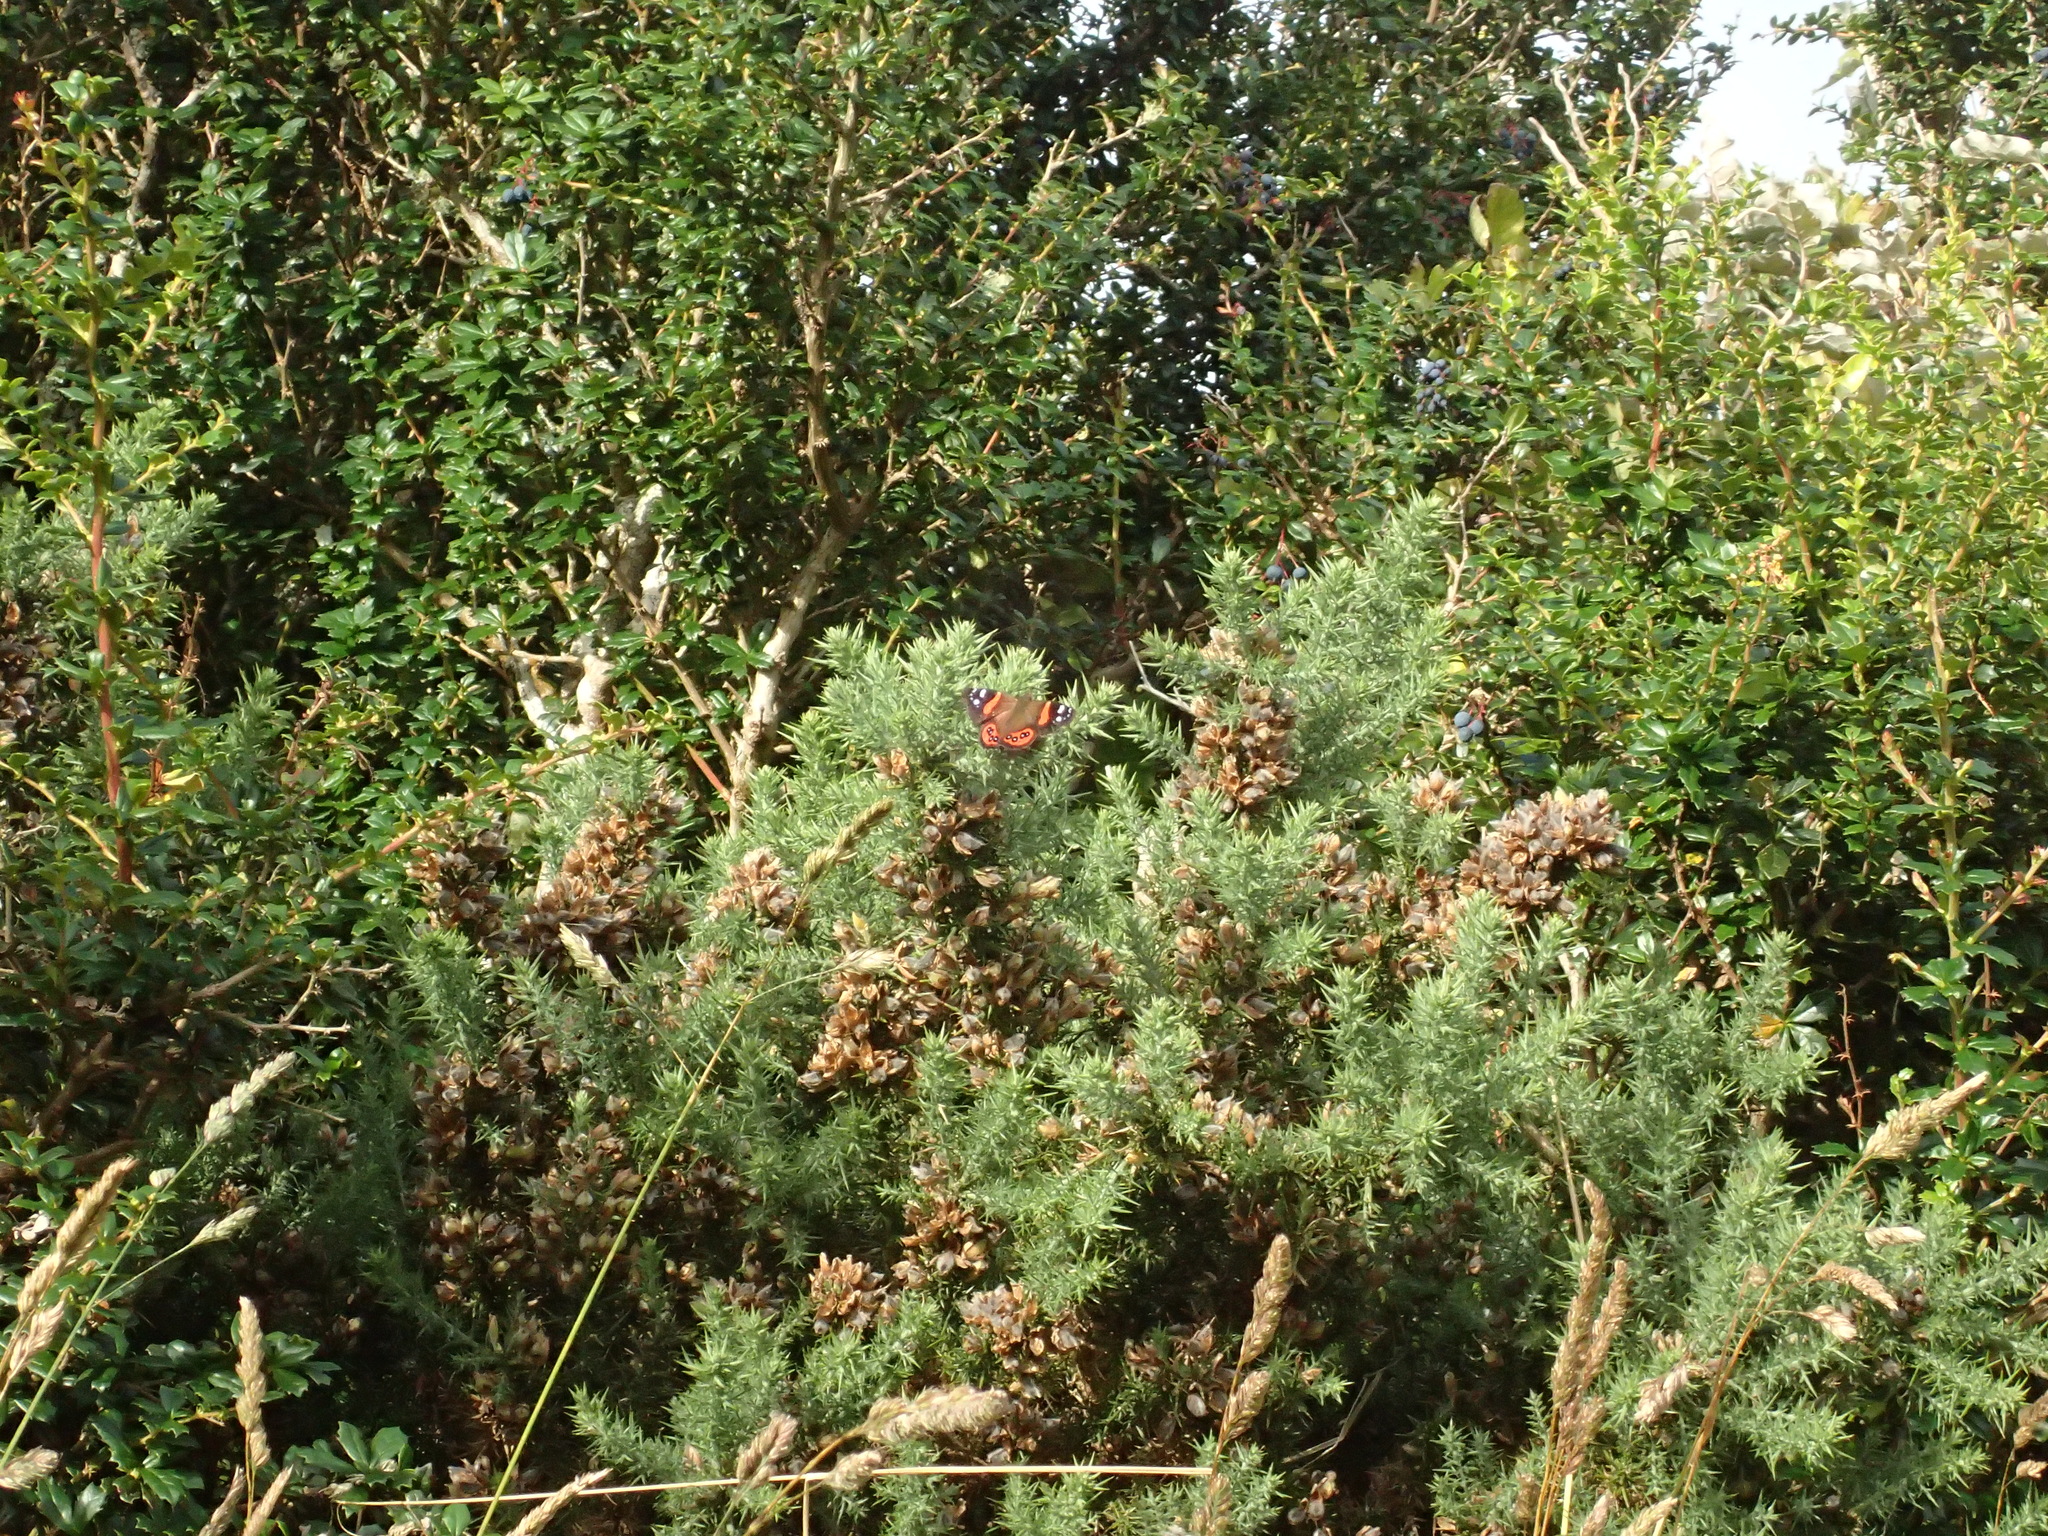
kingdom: Animalia
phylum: Arthropoda
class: Insecta
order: Lepidoptera
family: Nymphalidae
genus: Vanessa
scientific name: Vanessa gonerilla
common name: New zealand red admiral
